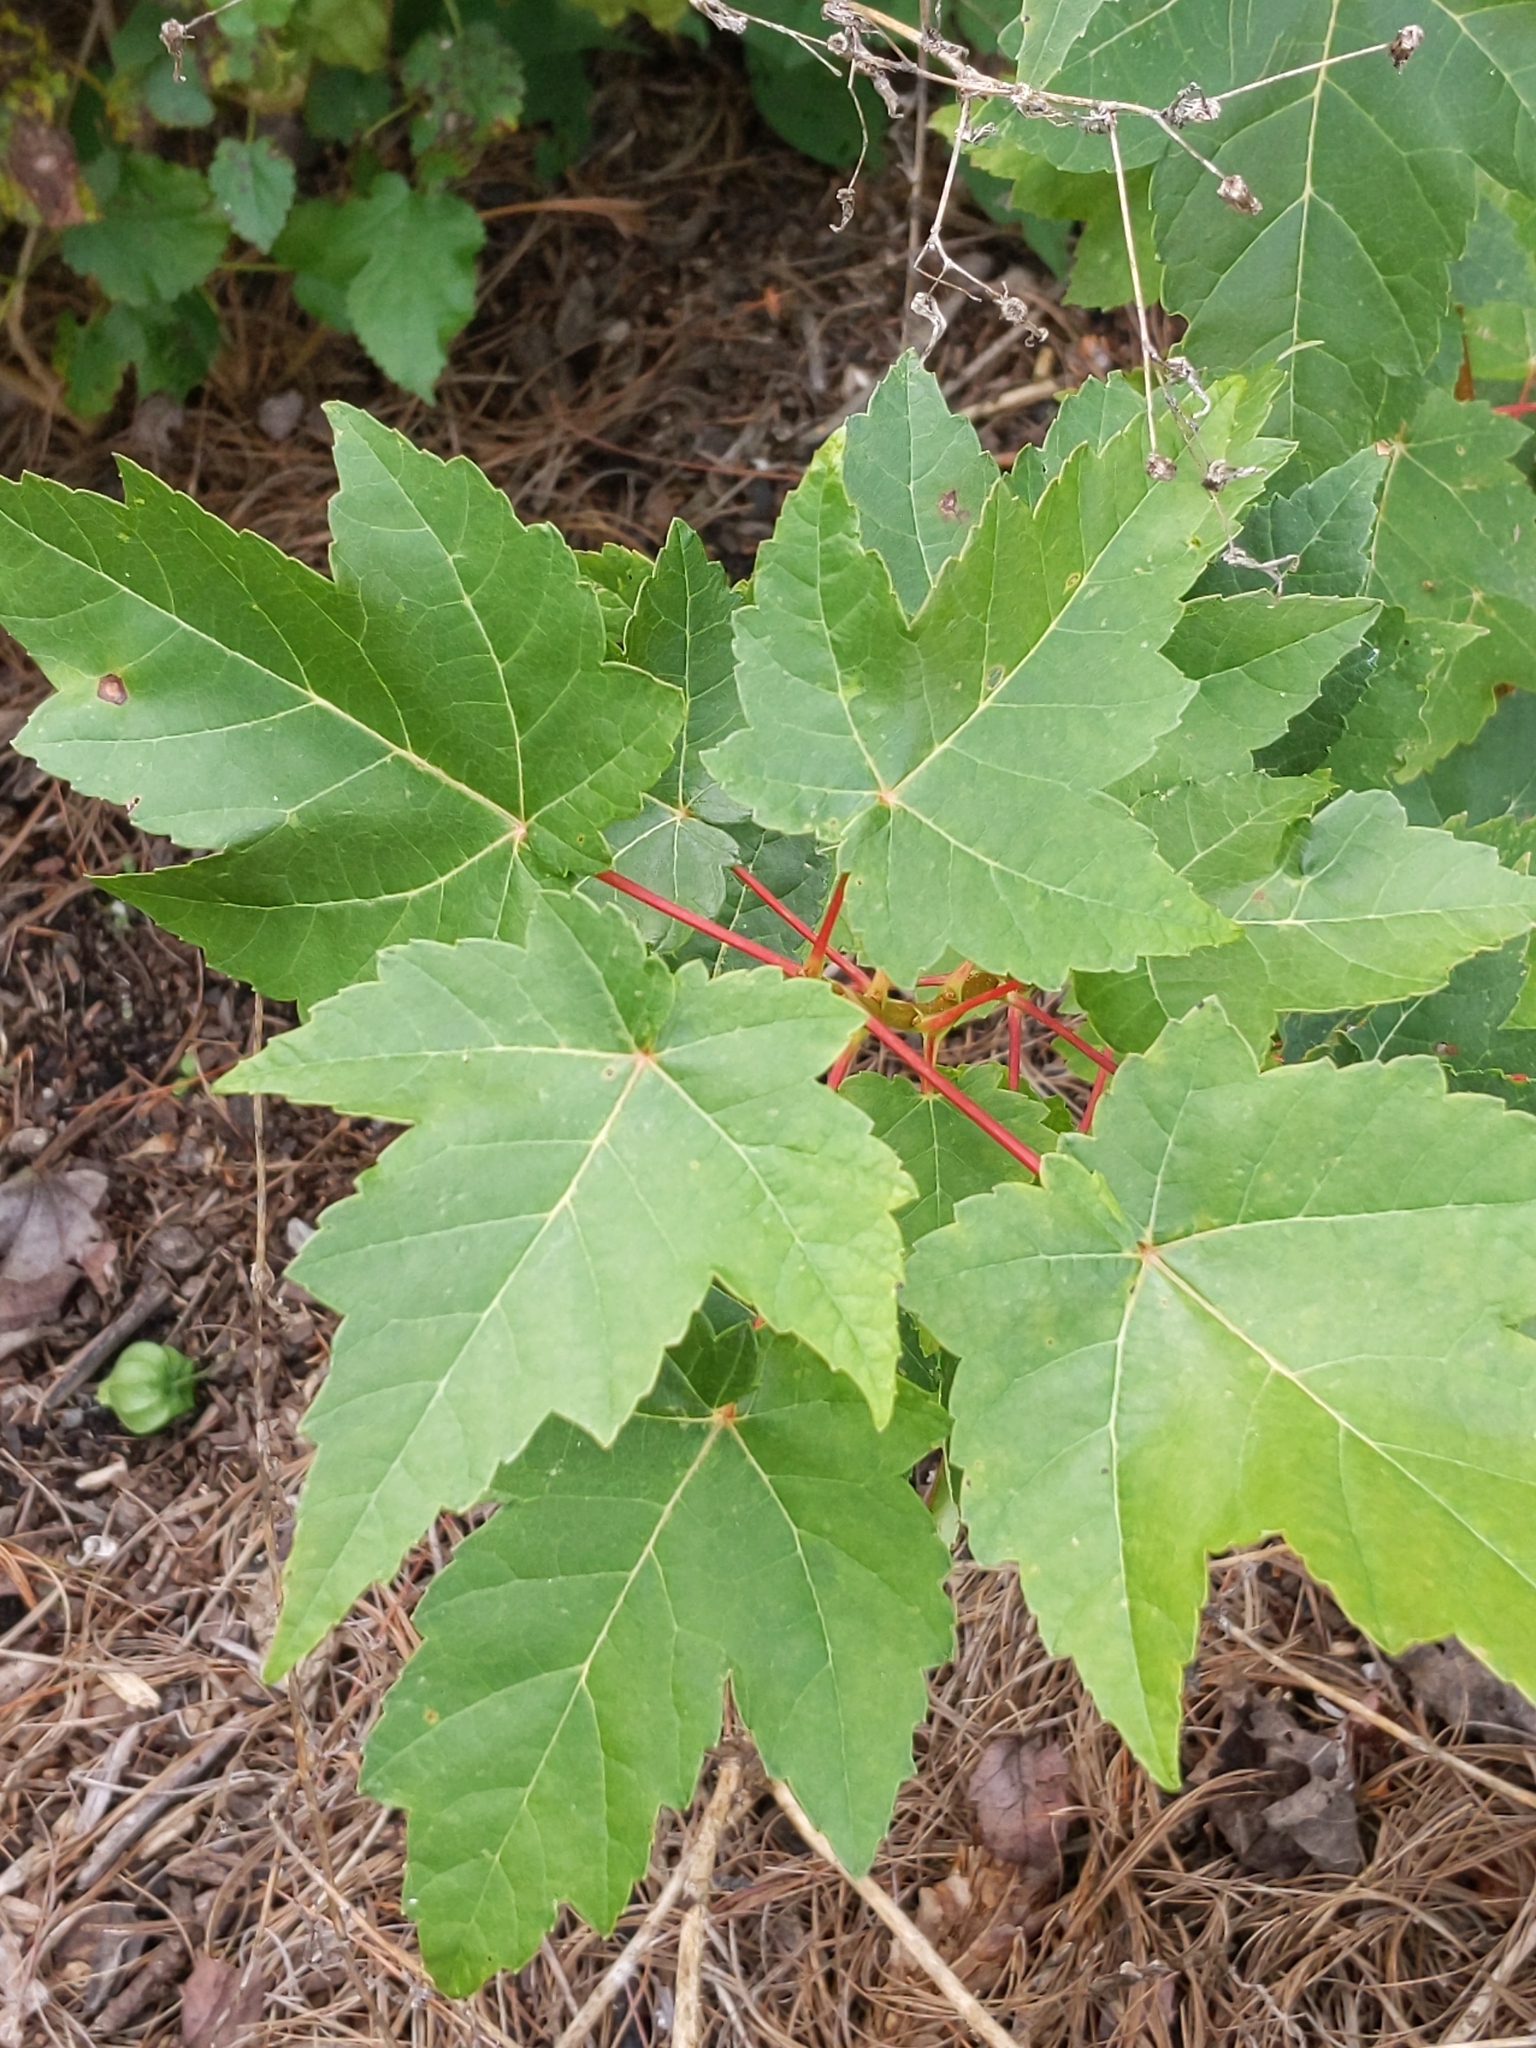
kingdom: Plantae
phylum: Tracheophyta
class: Magnoliopsida
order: Sapindales
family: Sapindaceae
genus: Acer
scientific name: Acer rubrum
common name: Red maple
